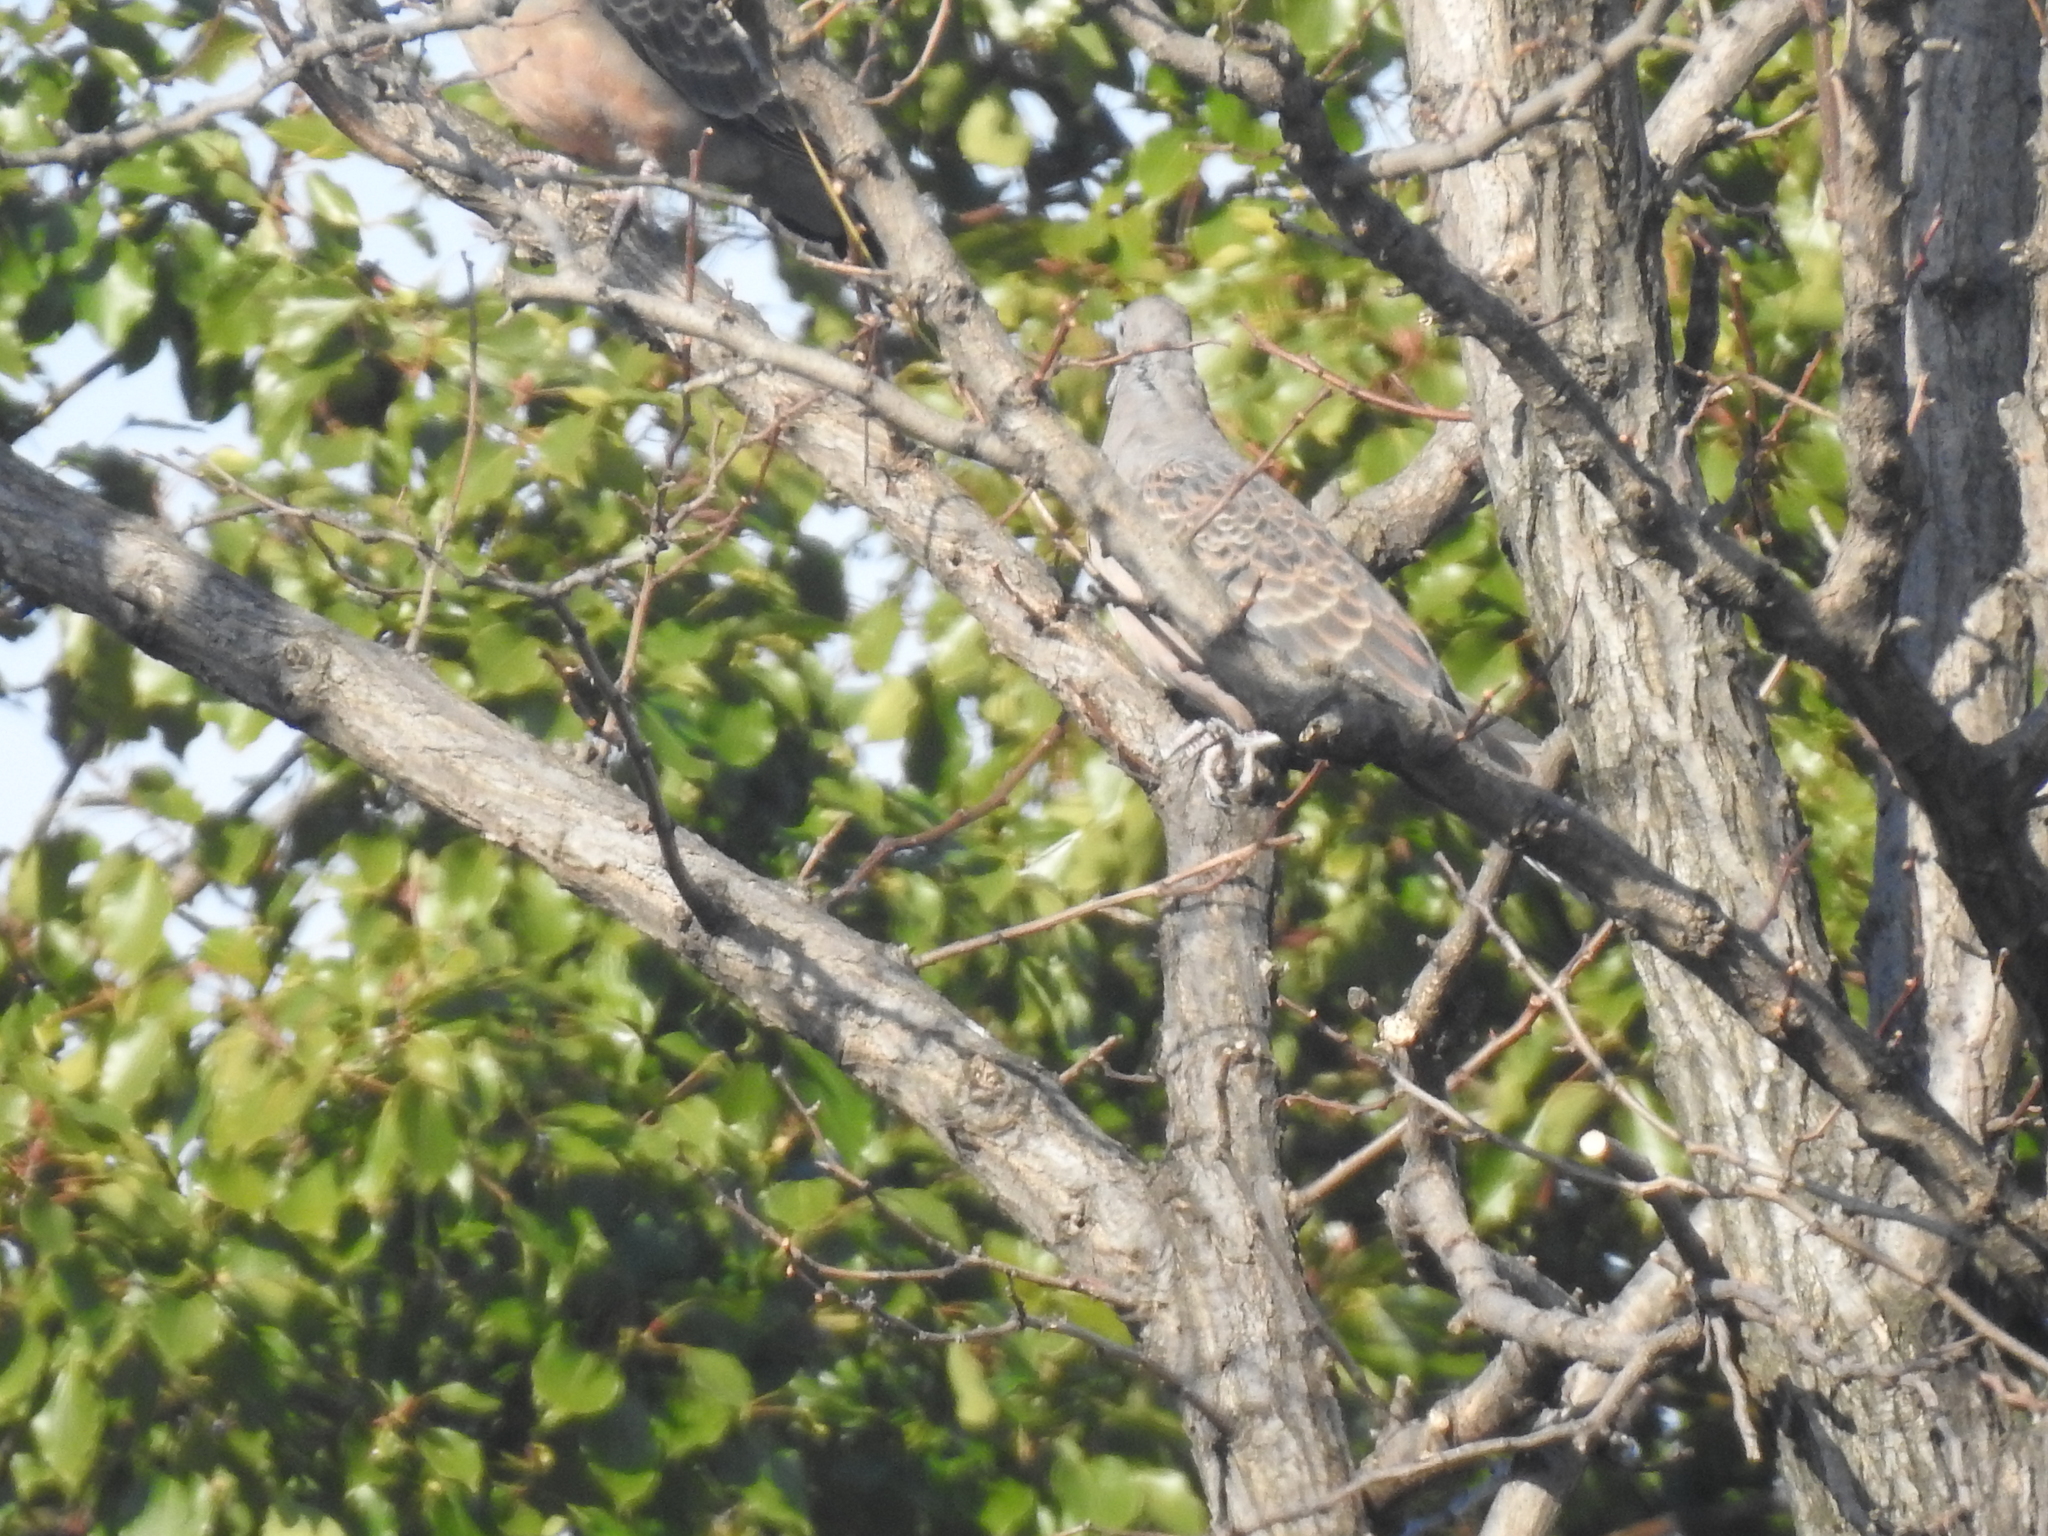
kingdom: Animalia
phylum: Chordata
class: Aves
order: Columbiformes
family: Columbidae
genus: Streptopelia
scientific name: Streptopelia orientalis
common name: Oriental turtle dove
